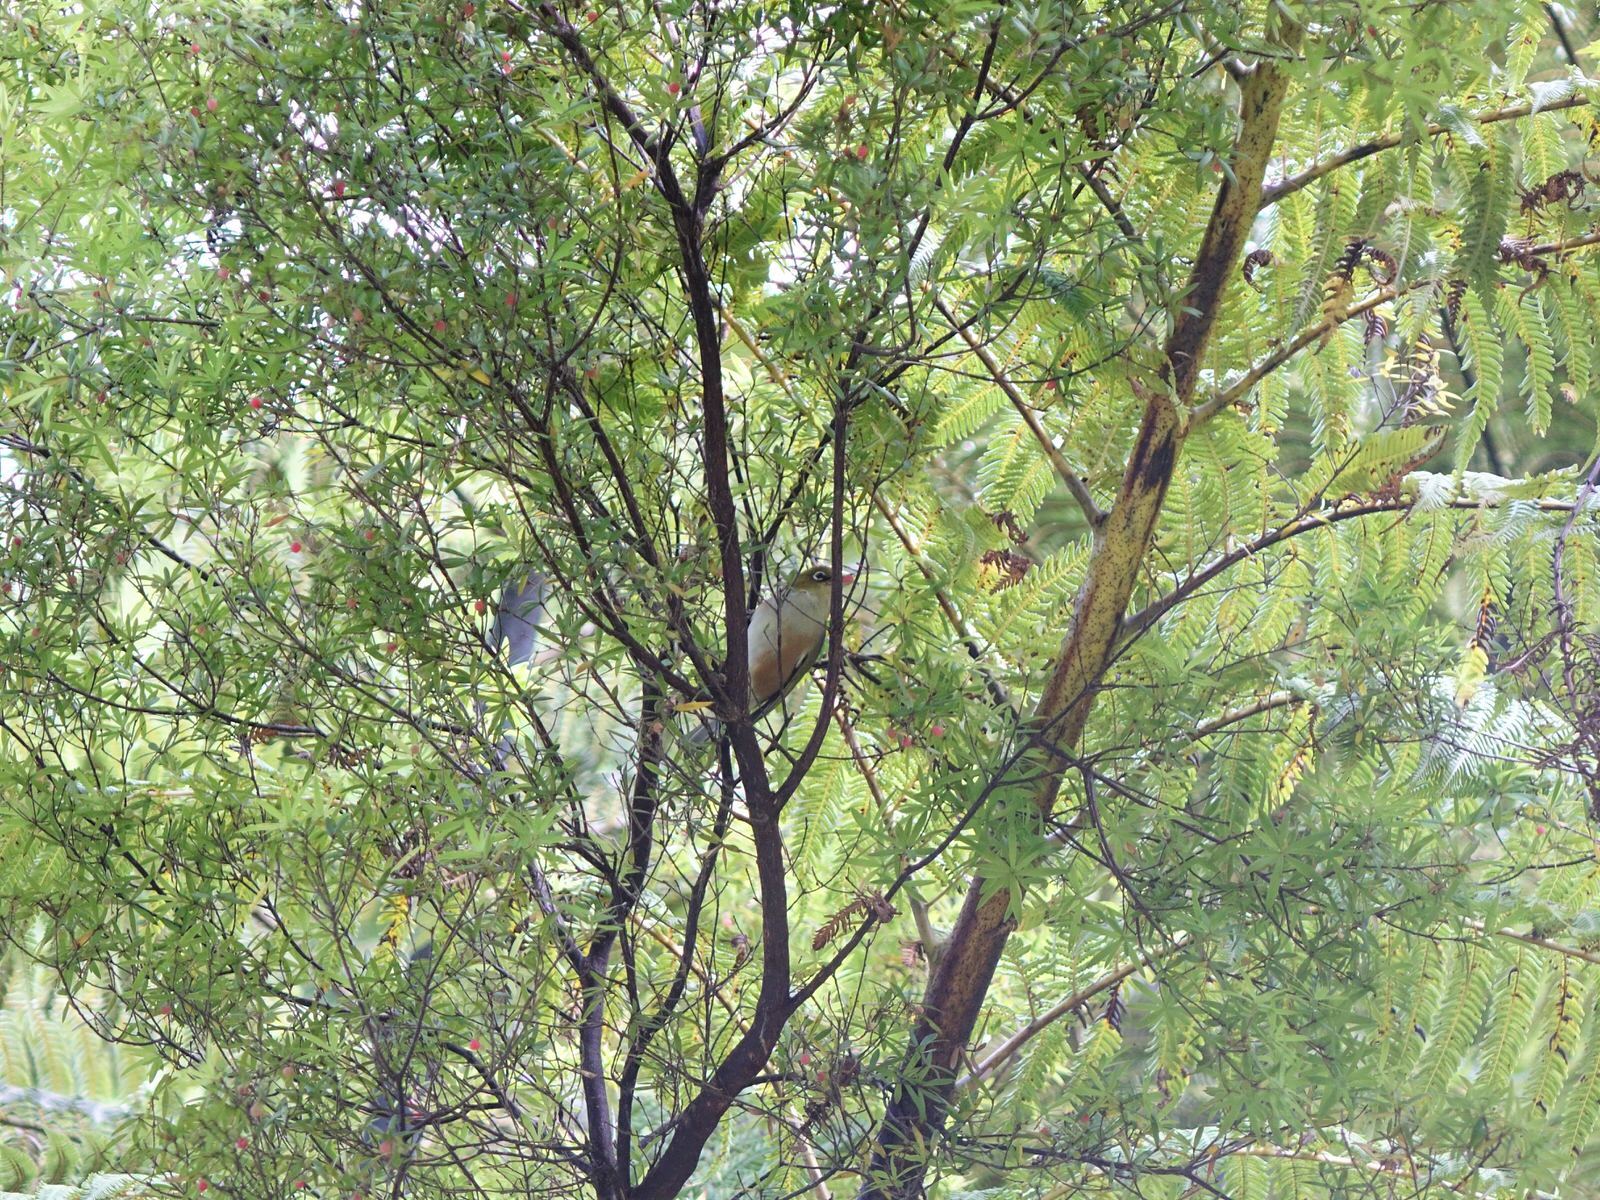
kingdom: Animalia
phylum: Chordata
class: Aves
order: Passeriformes
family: Zosteropidae
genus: Zosterops
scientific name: Zosterops lateralis
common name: Silvereye
